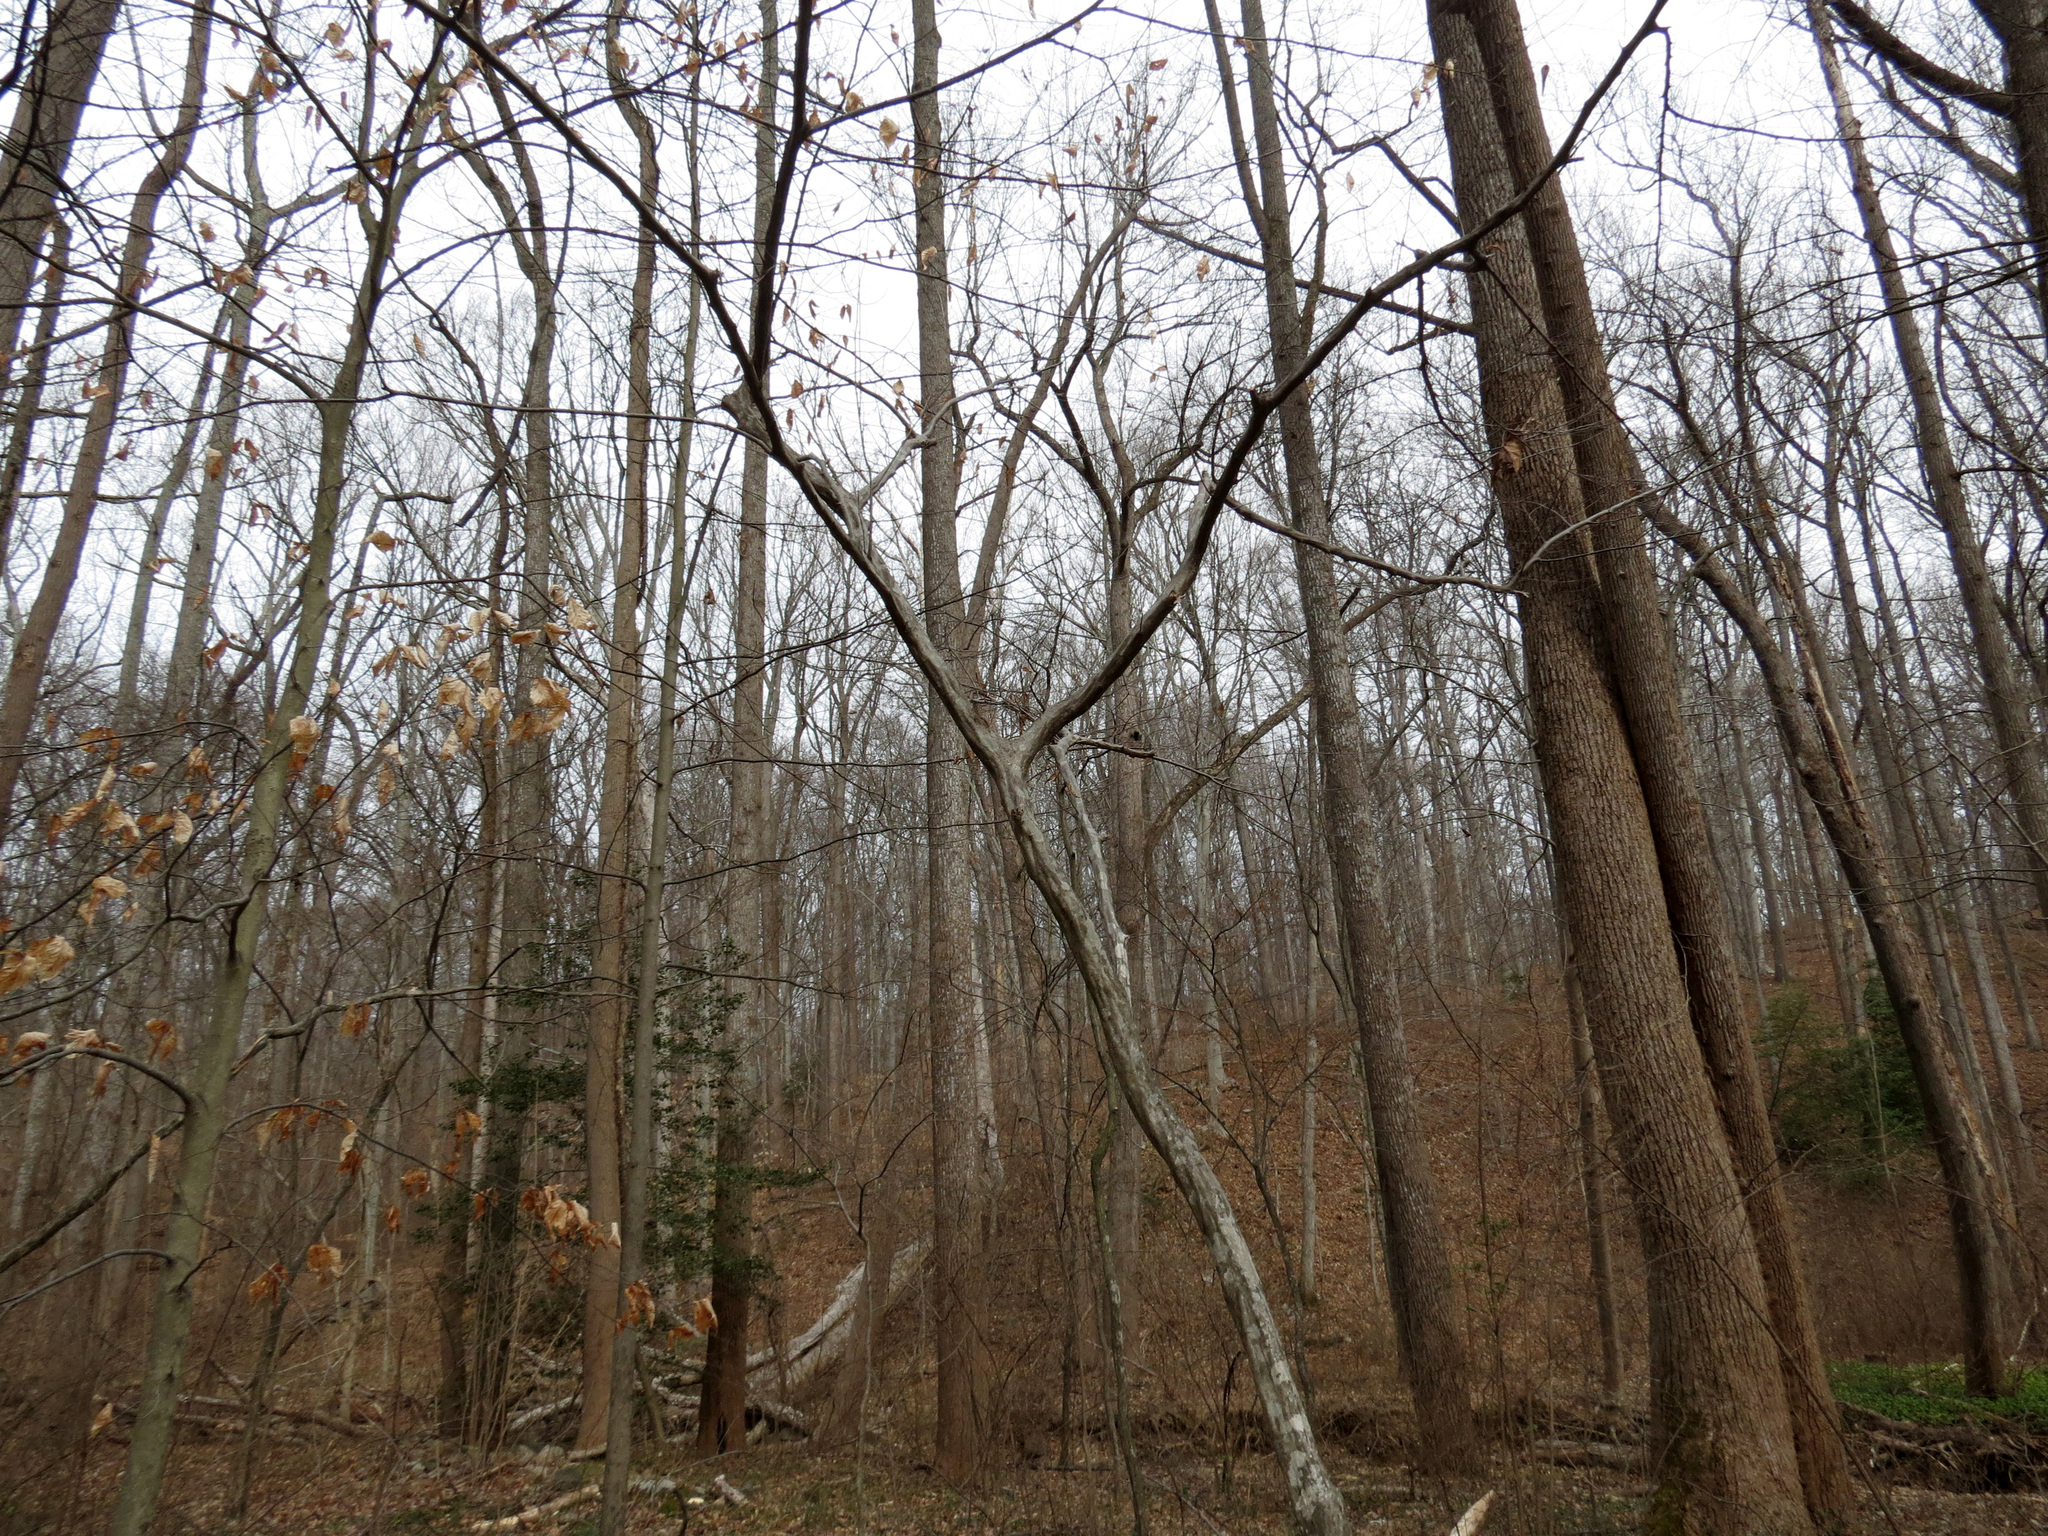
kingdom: Plantae
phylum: Tracheophyta
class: Magnoliopsida
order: Fagales
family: Betulaceae
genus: Carpinus
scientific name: Carpinus caroliniana
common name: American hornbeam
